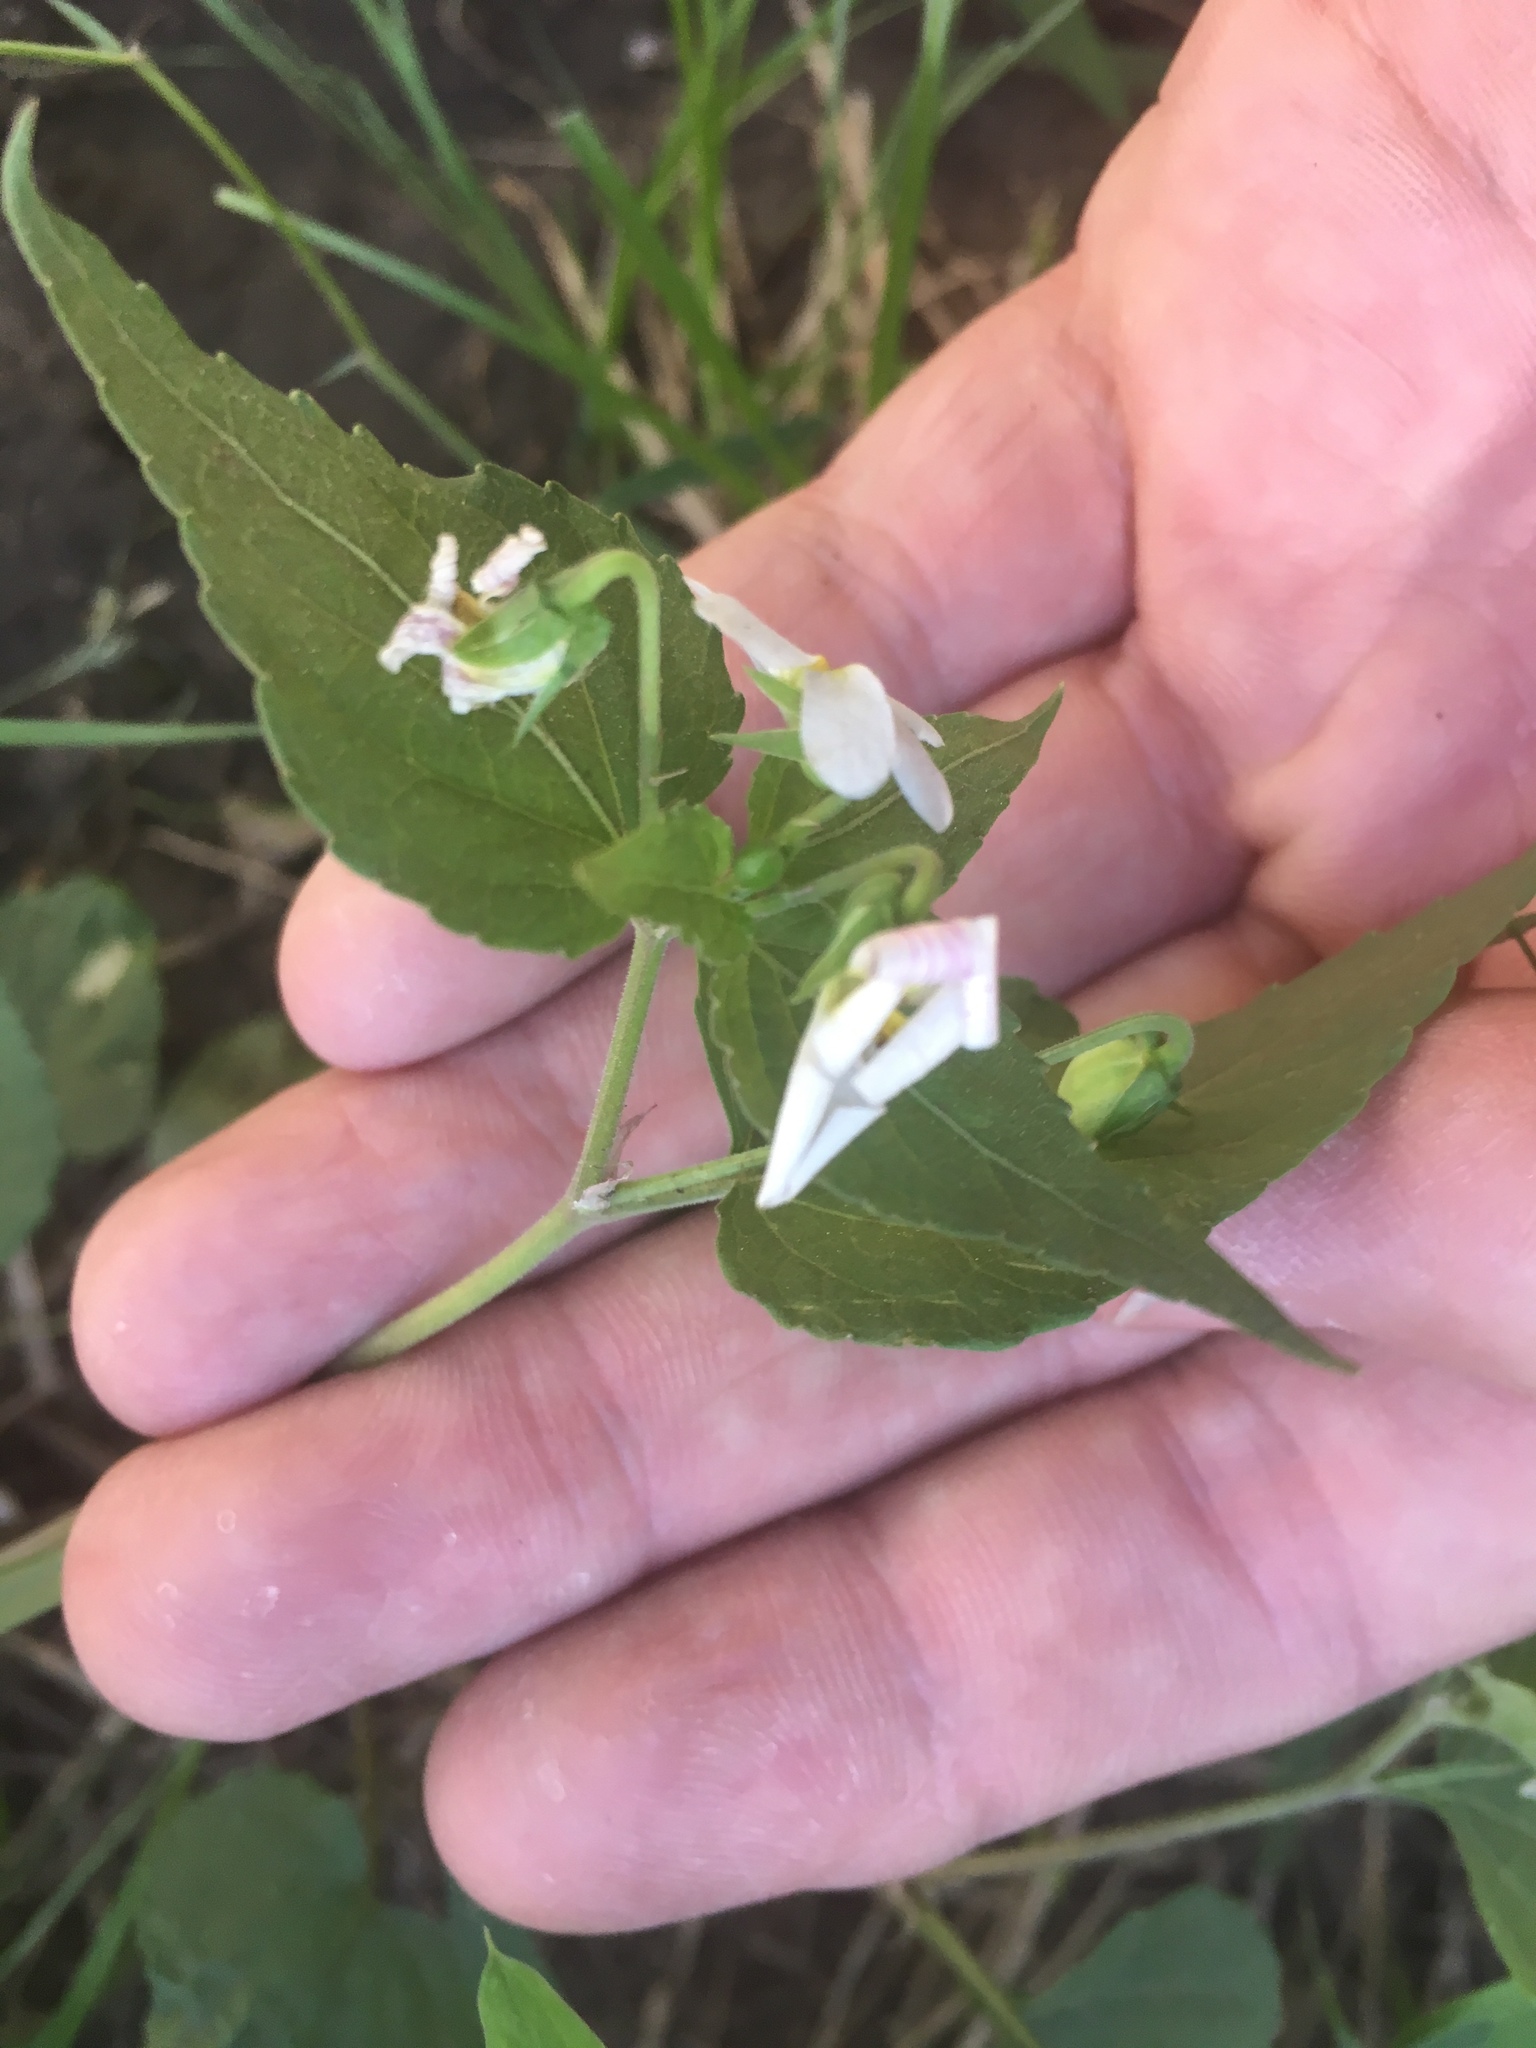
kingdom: Plantae
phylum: Tracheophyta
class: Magnoliopsida
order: Malpighiales
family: Violaceae
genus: Viola
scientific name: Viola canadensis
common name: Canada violet
